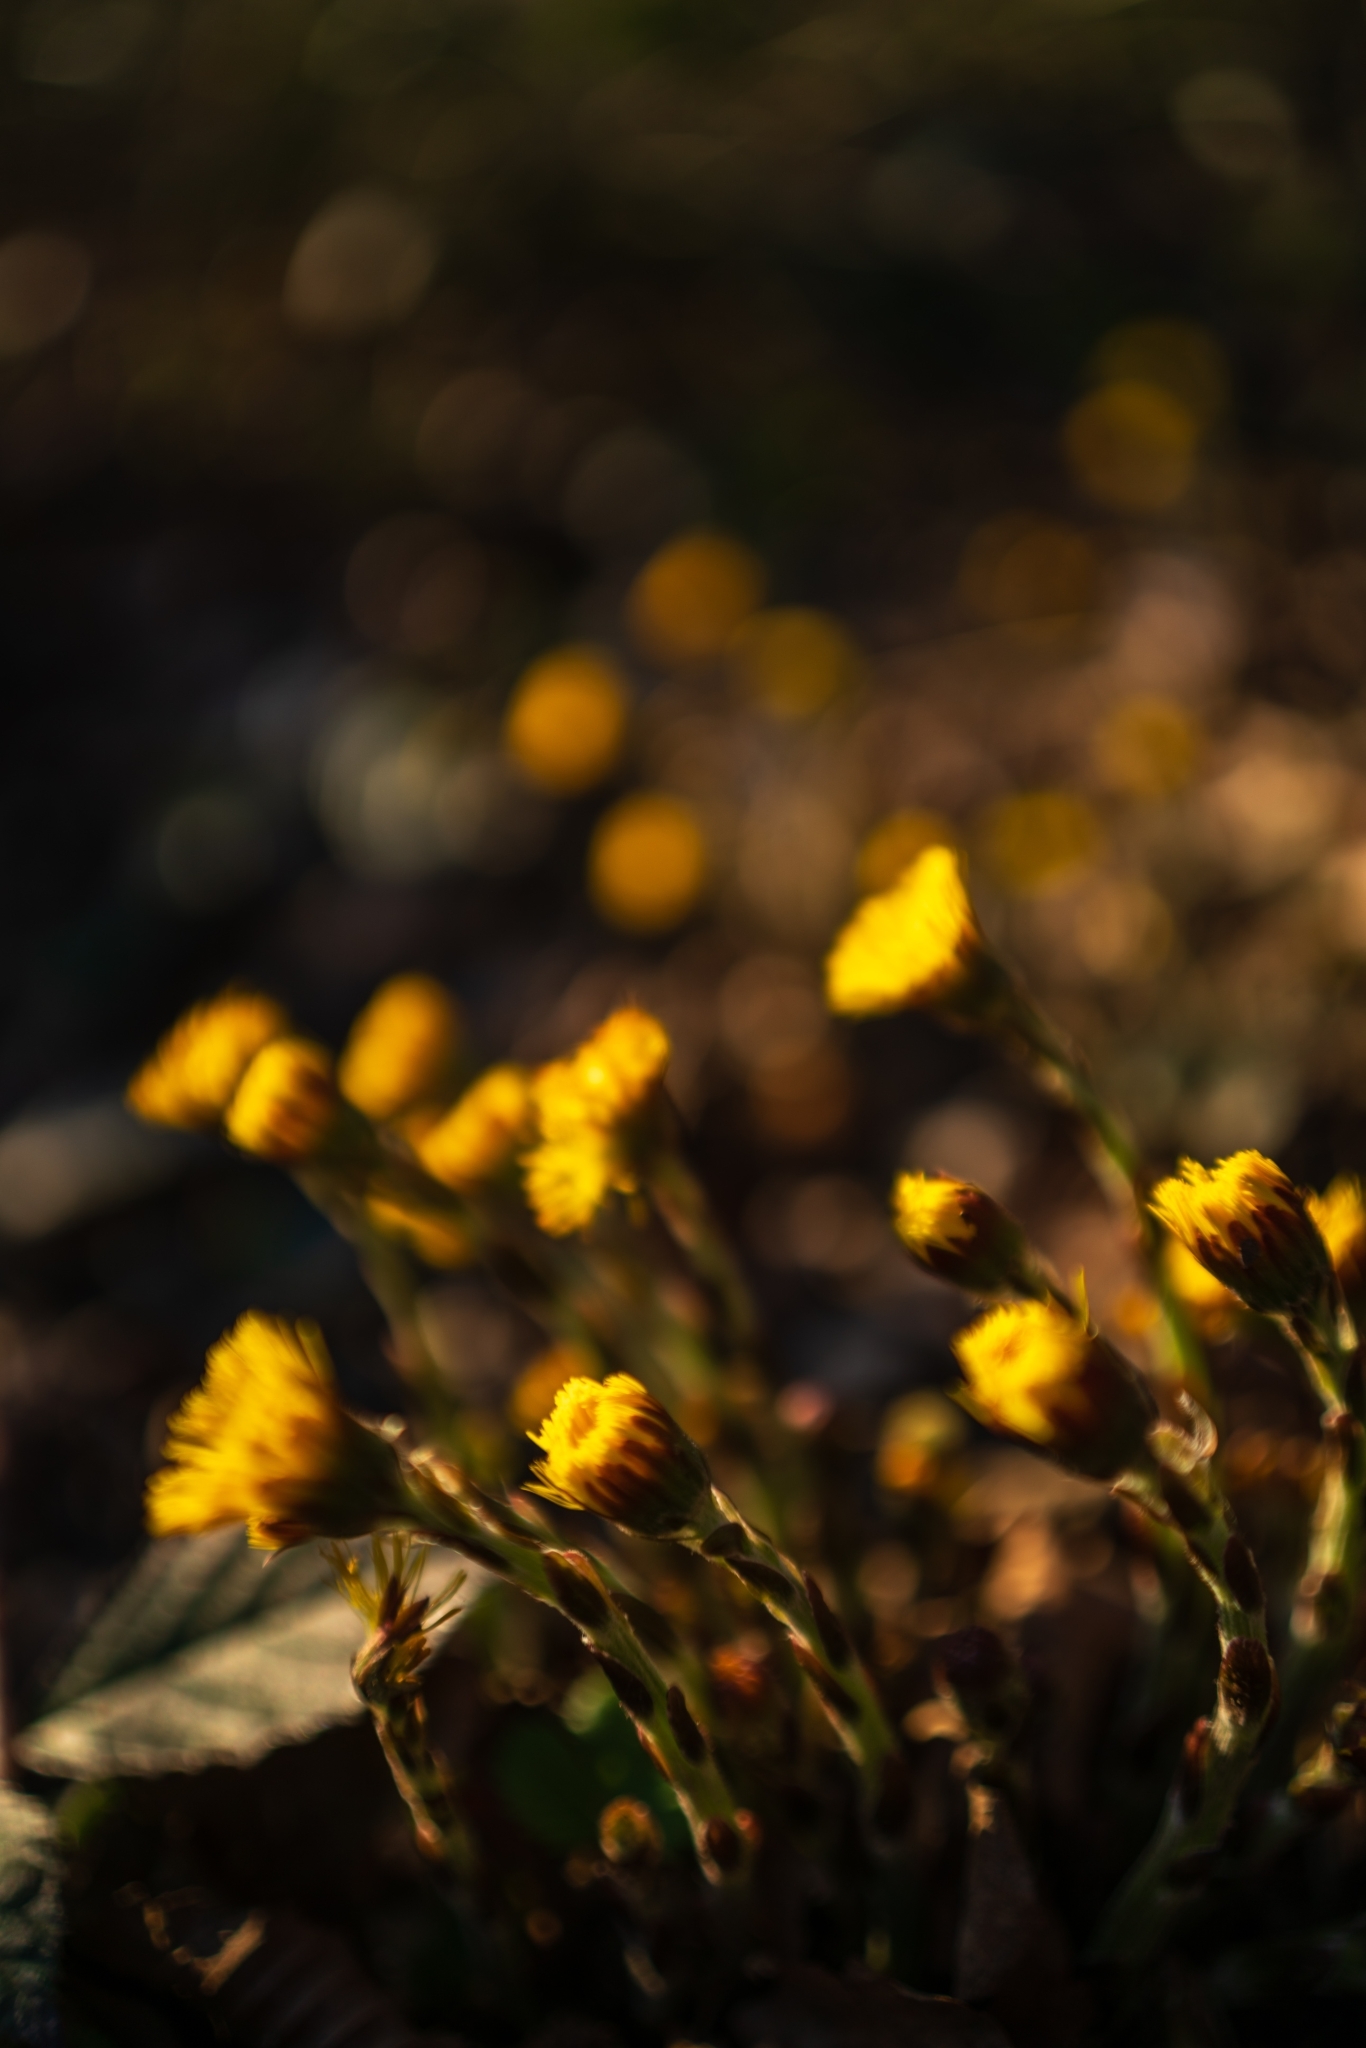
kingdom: Plantae
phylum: Tracheophyta
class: Magnoliopsida
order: Asterales
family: Asteraceae
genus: Tussilago
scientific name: Tussilago farfara
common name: Coltsfoot
